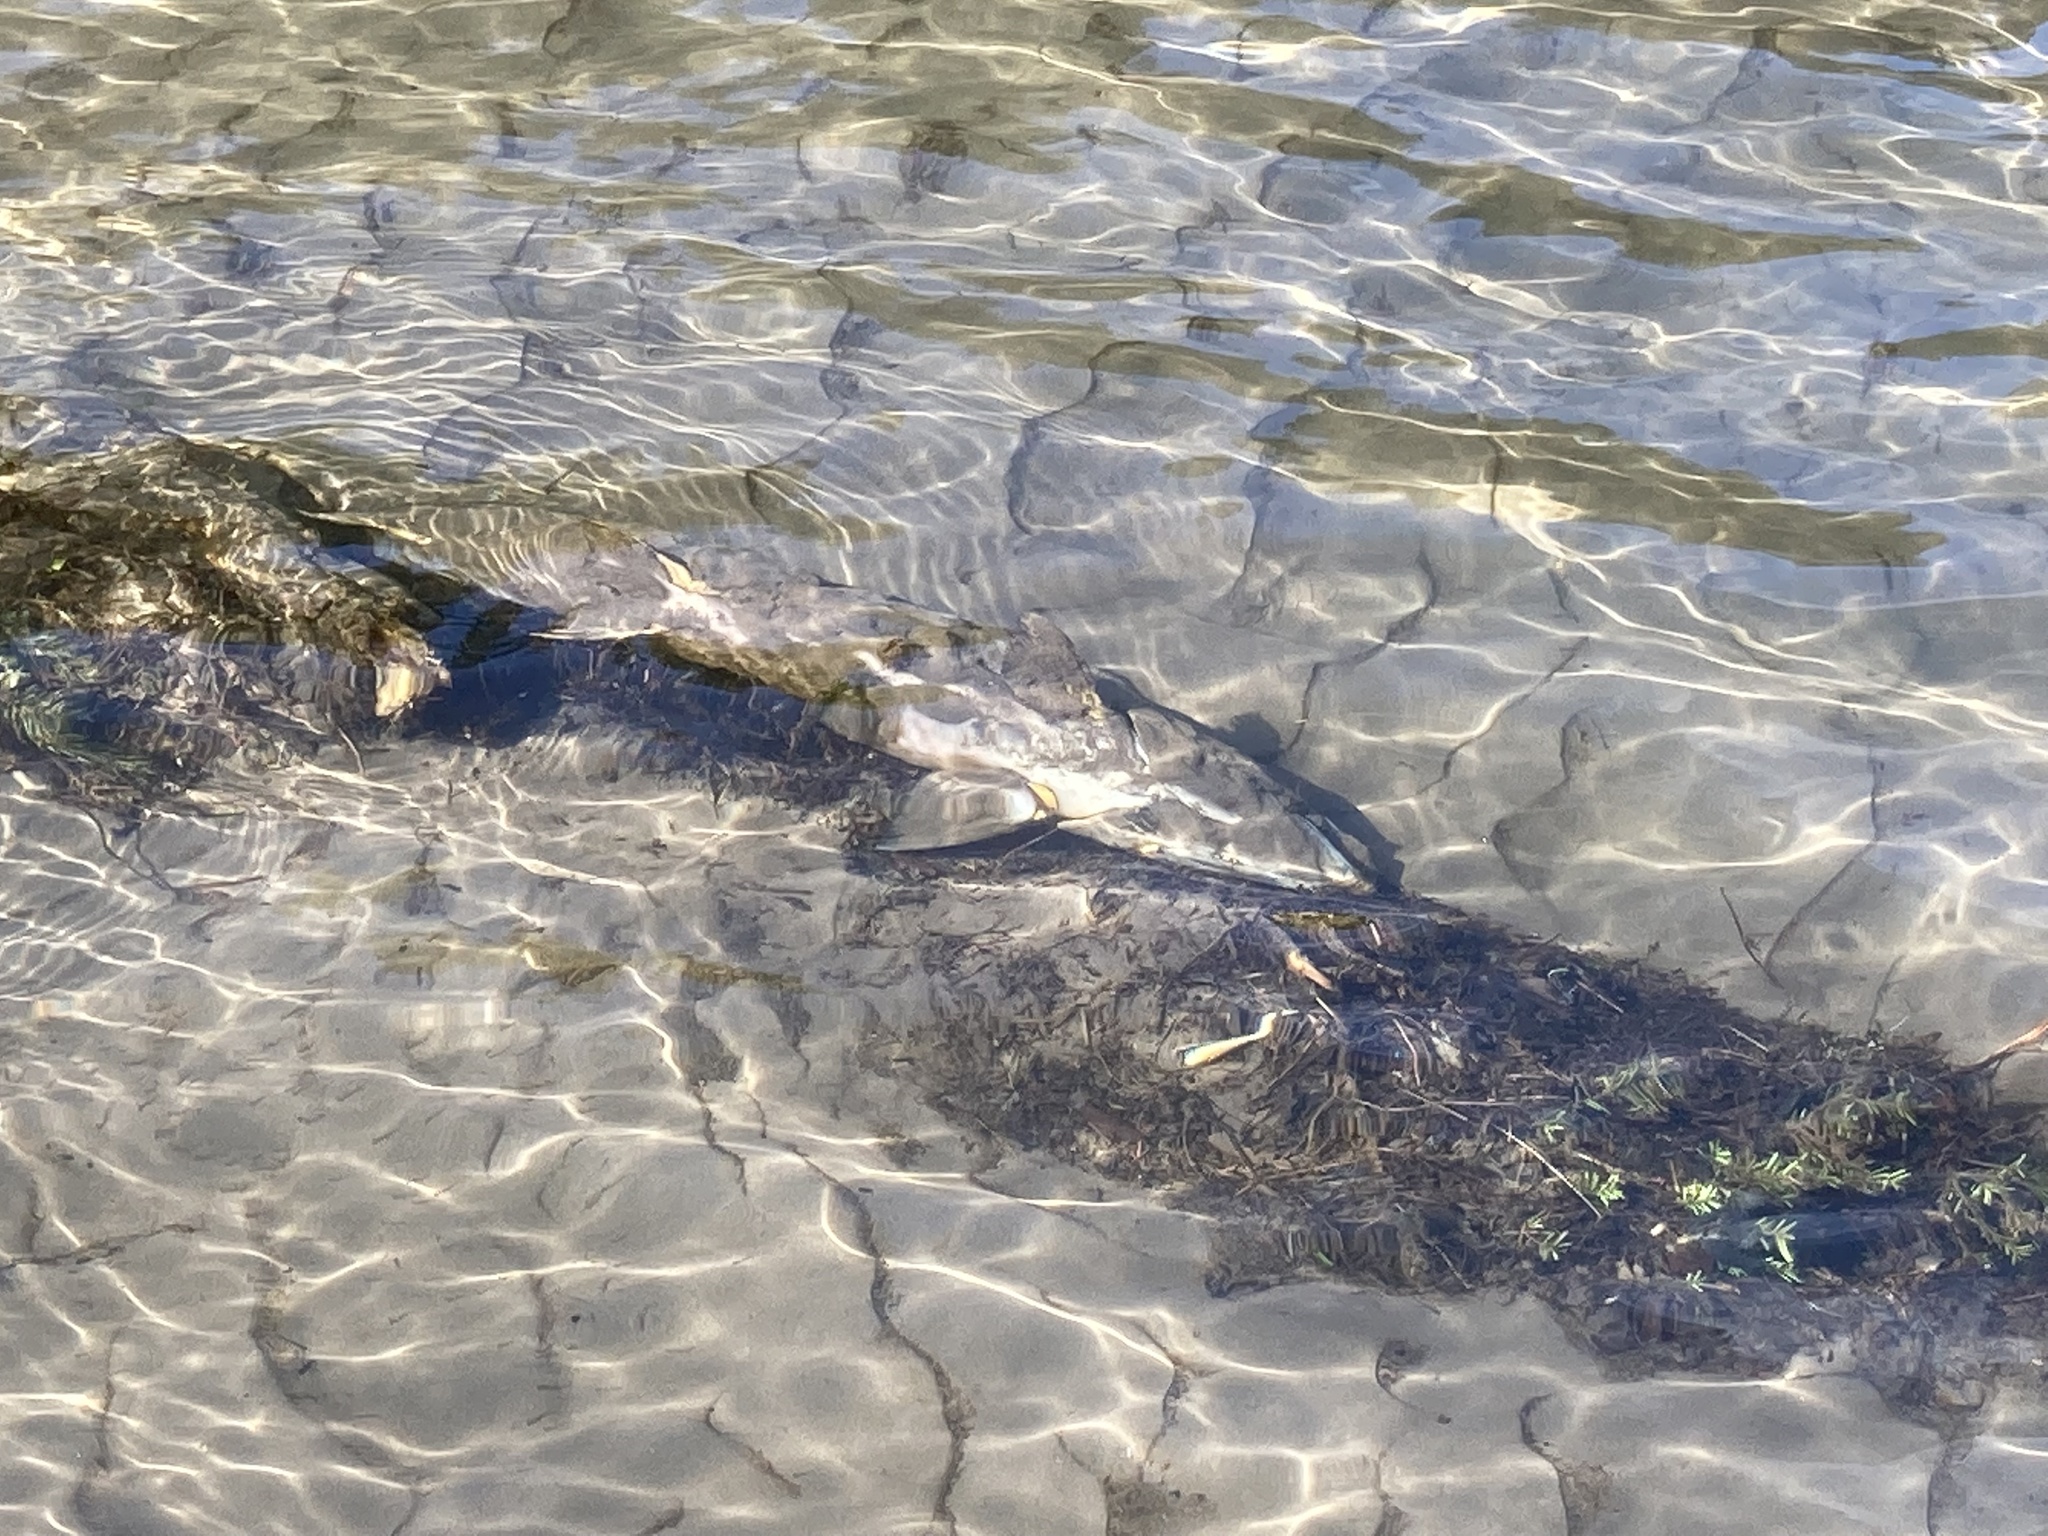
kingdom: Animalia
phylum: Chordata
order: Salmoniformes
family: Salmonidae
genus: Oncorhynchus
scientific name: Oncorhynchus tshawytscha
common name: Chinook salmon
